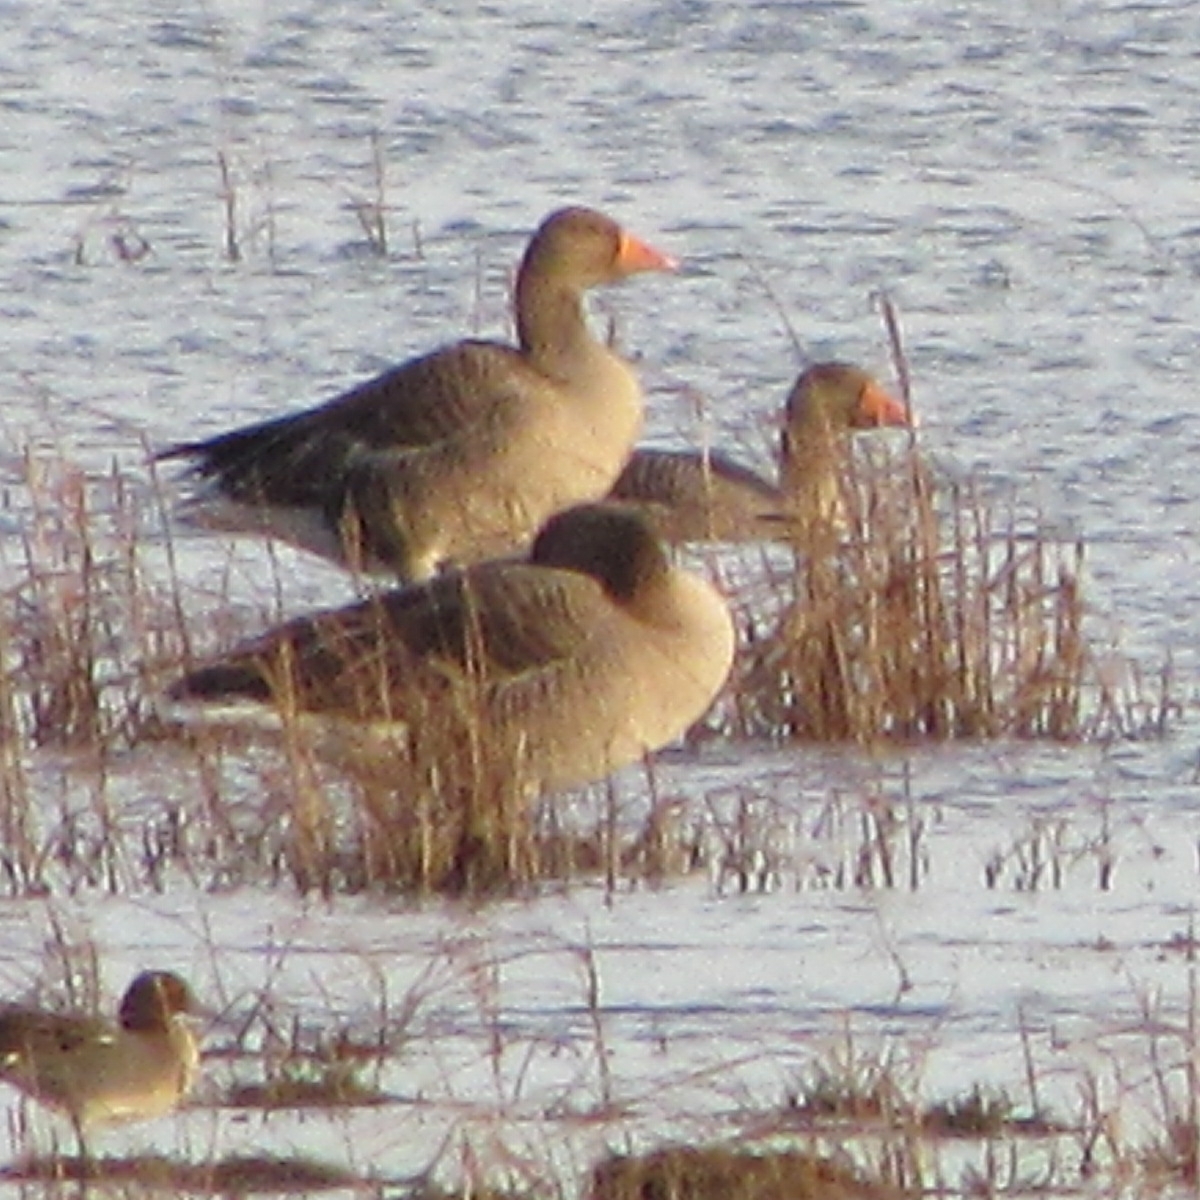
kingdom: Animalia
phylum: Chordata
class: Aves
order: Anseriformes
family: Anatidae
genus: Anser
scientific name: Anser anser
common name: Greylag goose
